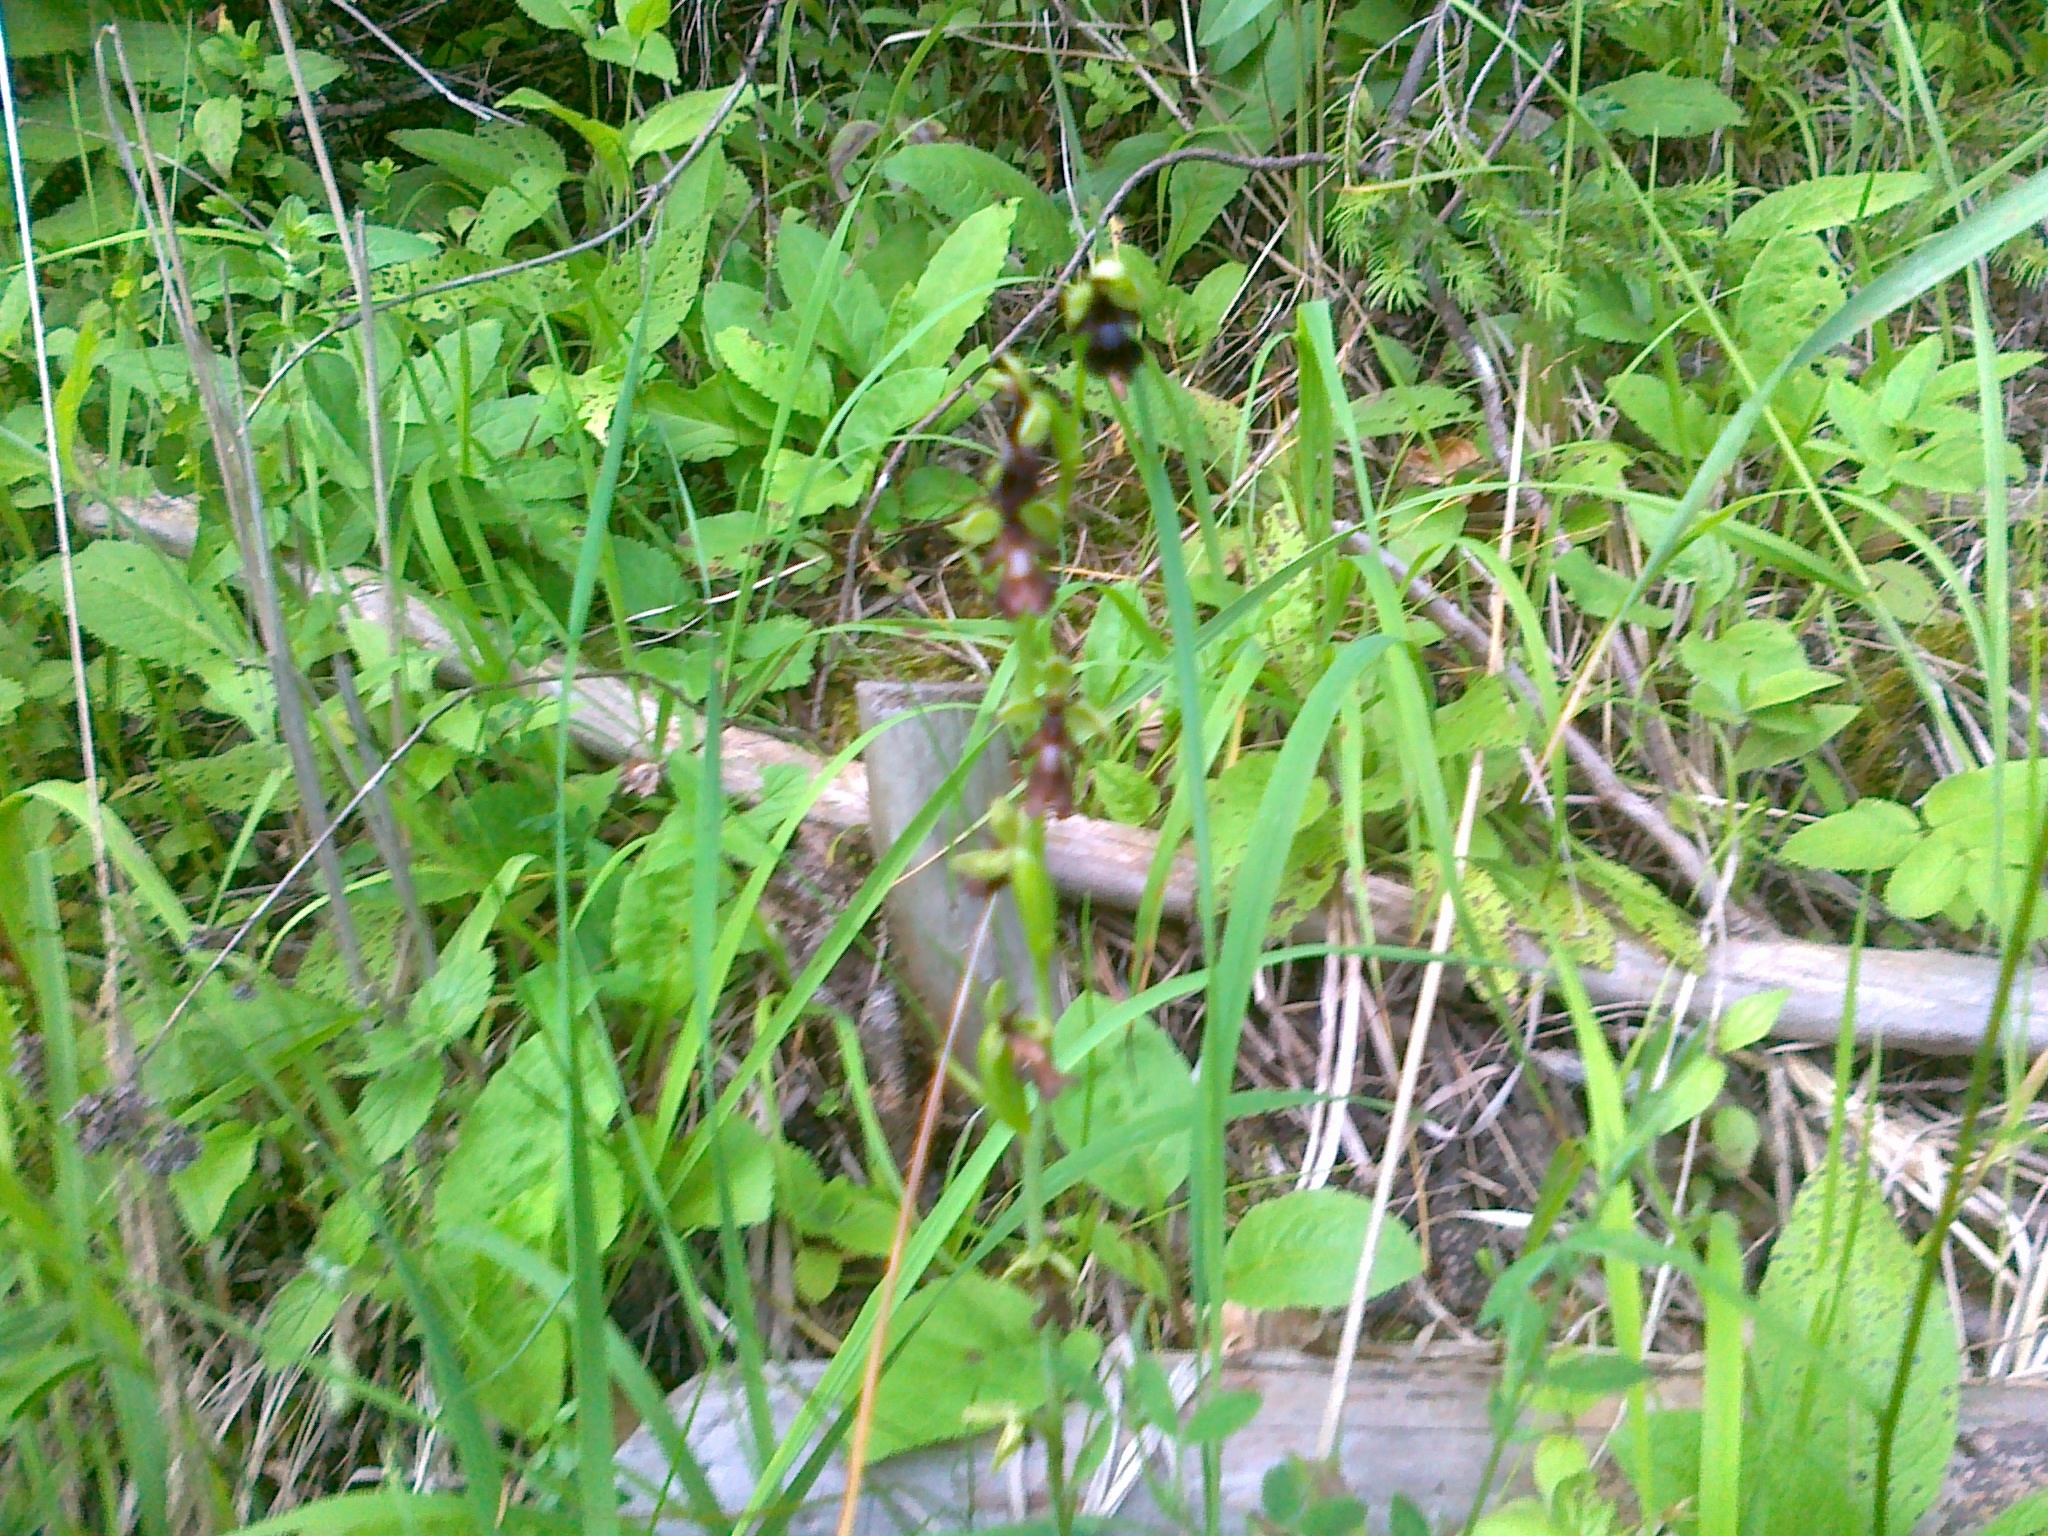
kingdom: Plantae
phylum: Tracheophyta
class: Liliopsida
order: Asparagales
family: Orchidaceae
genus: Ophrys
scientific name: Ophrys insectifera
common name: Fly orchid
